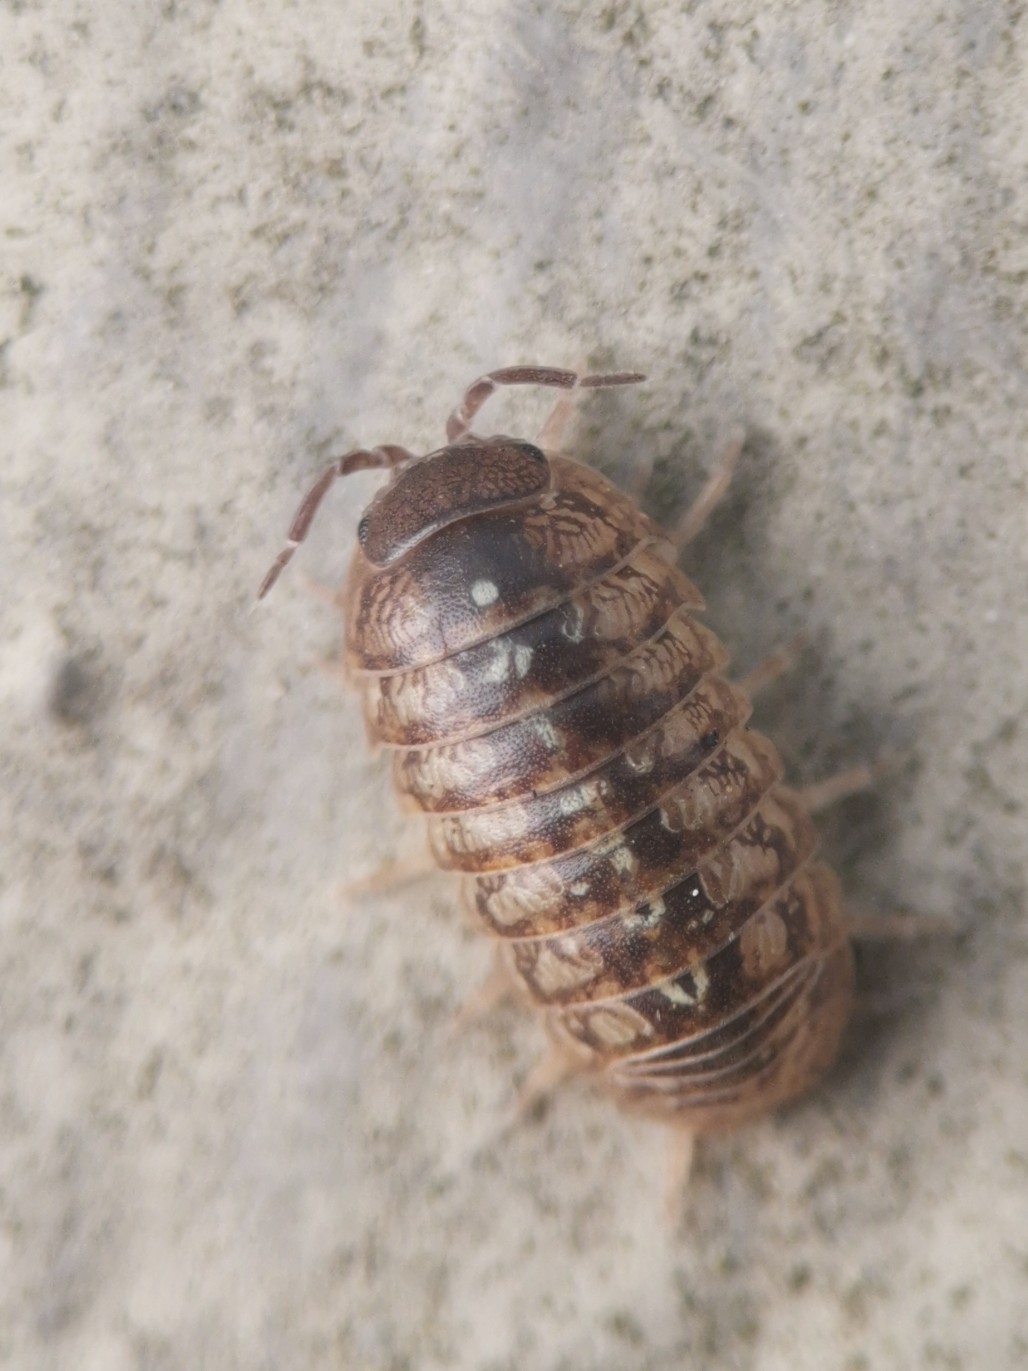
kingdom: Animalia
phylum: Arthropoda
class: Malacostraca
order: Isopoda
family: Armadillidiidae
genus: Armadillidium
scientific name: Armadillidium vulgare
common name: Common pill woodlouse
